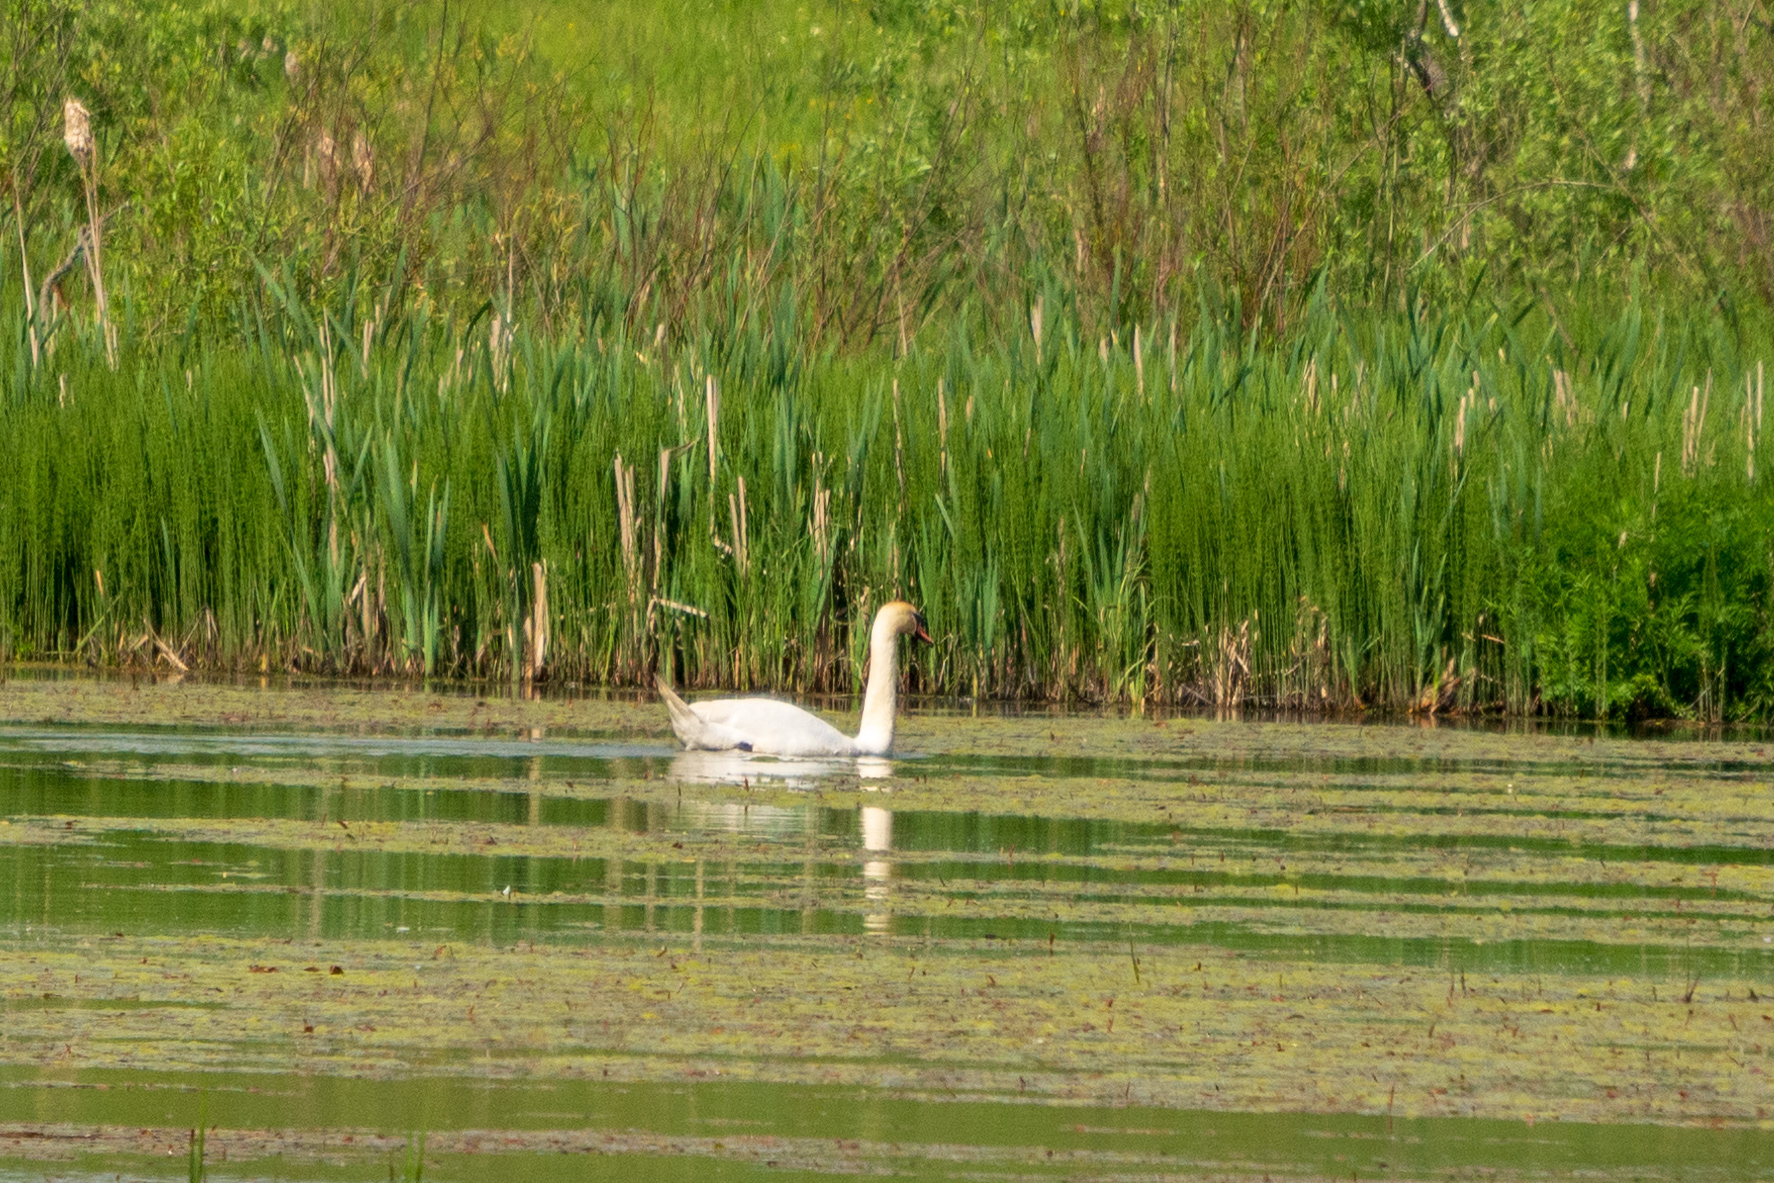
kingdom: Animalia
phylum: Chordata
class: Aves
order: Anseriformes
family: Anatidae
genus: Cygnus
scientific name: Cygnus olor
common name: Mute swan
